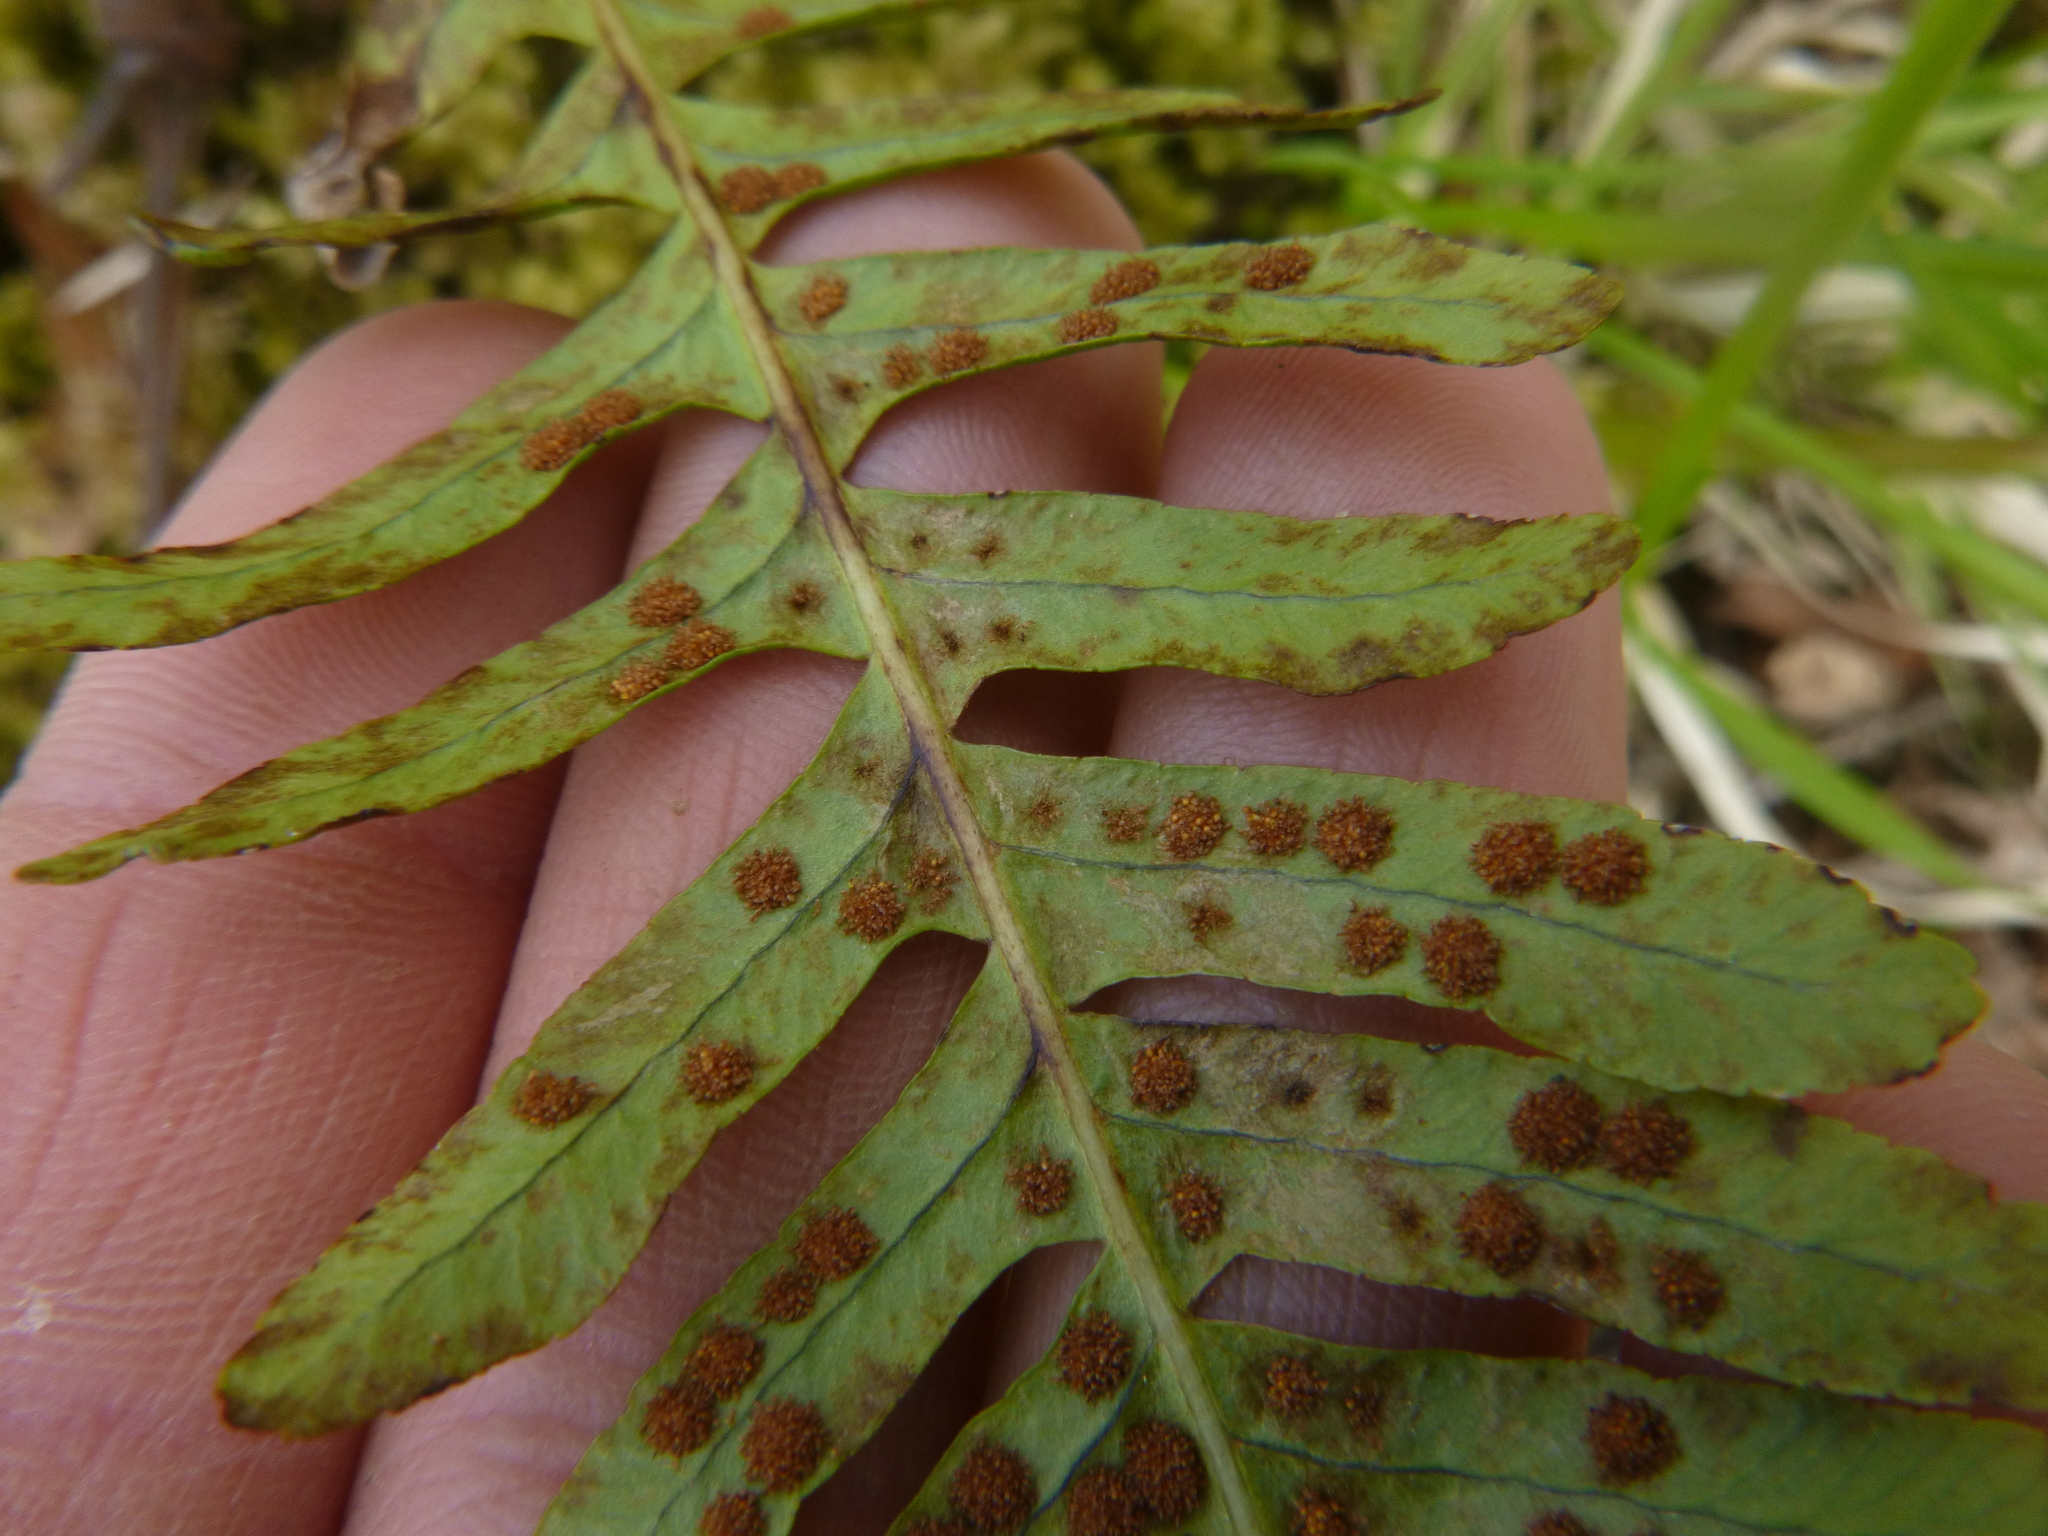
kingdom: Plantae
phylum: Tracheophyta
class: Polypodiopsida
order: Polypodiales
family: Polypodiaceae
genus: Polypodium
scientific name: Polypodium vulgare
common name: Common polypody
